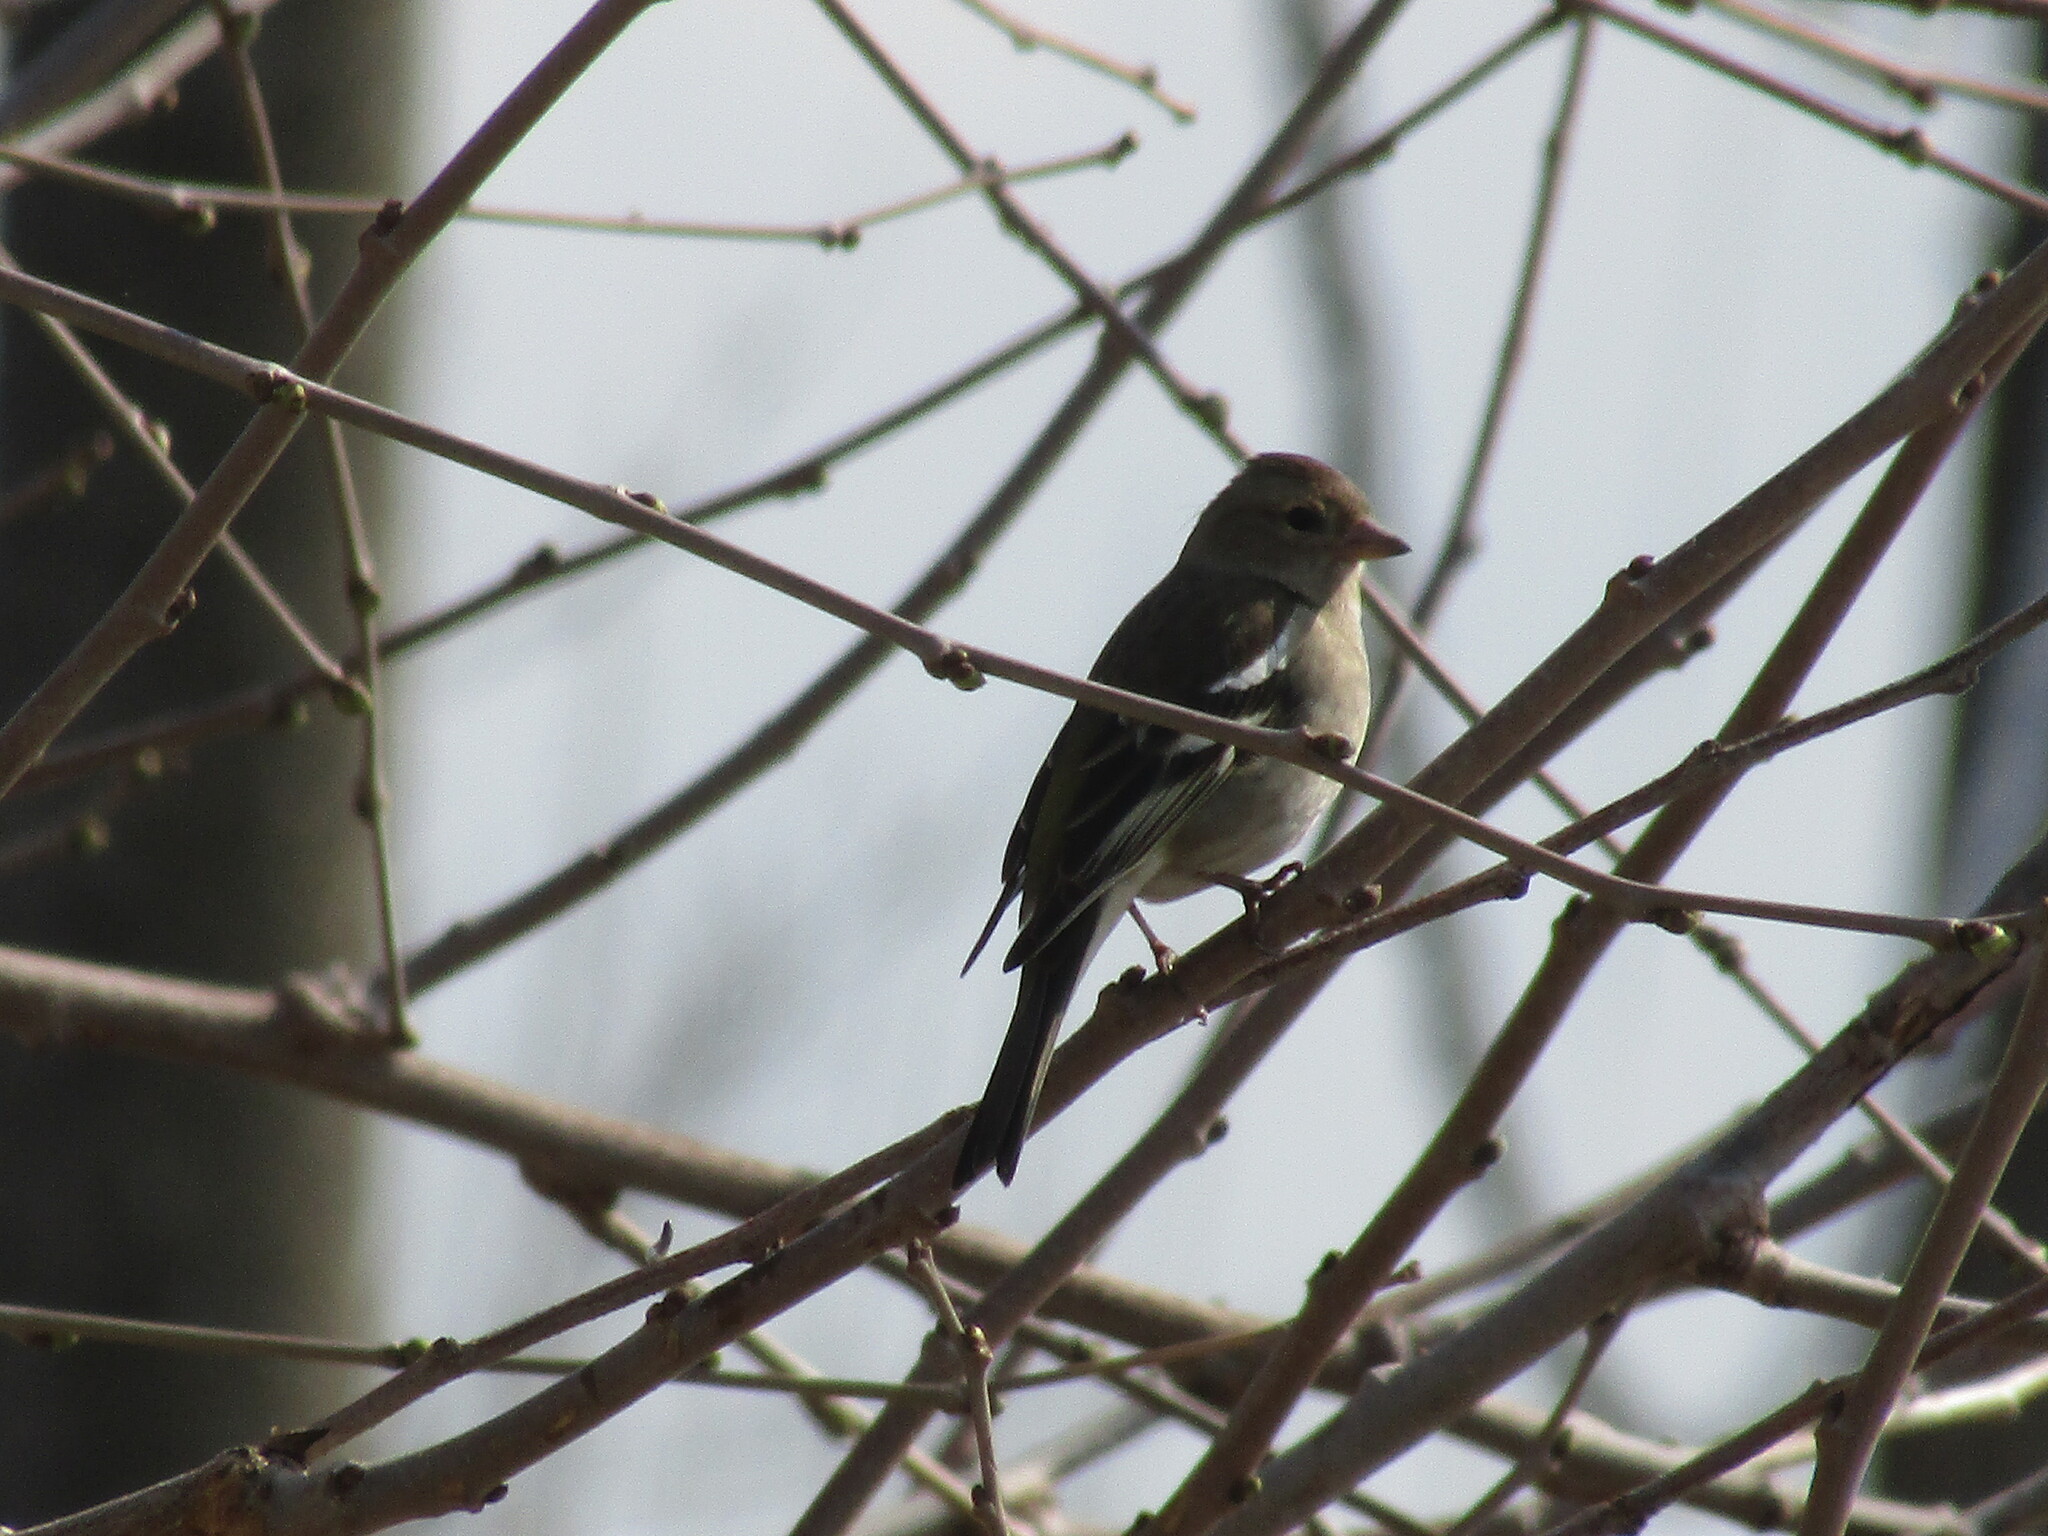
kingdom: Animalia
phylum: Chordata
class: Aves
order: Passeriformes
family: Fringillidae
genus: Fringilla
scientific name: Fringilla coelebs
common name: Common chaffinch
